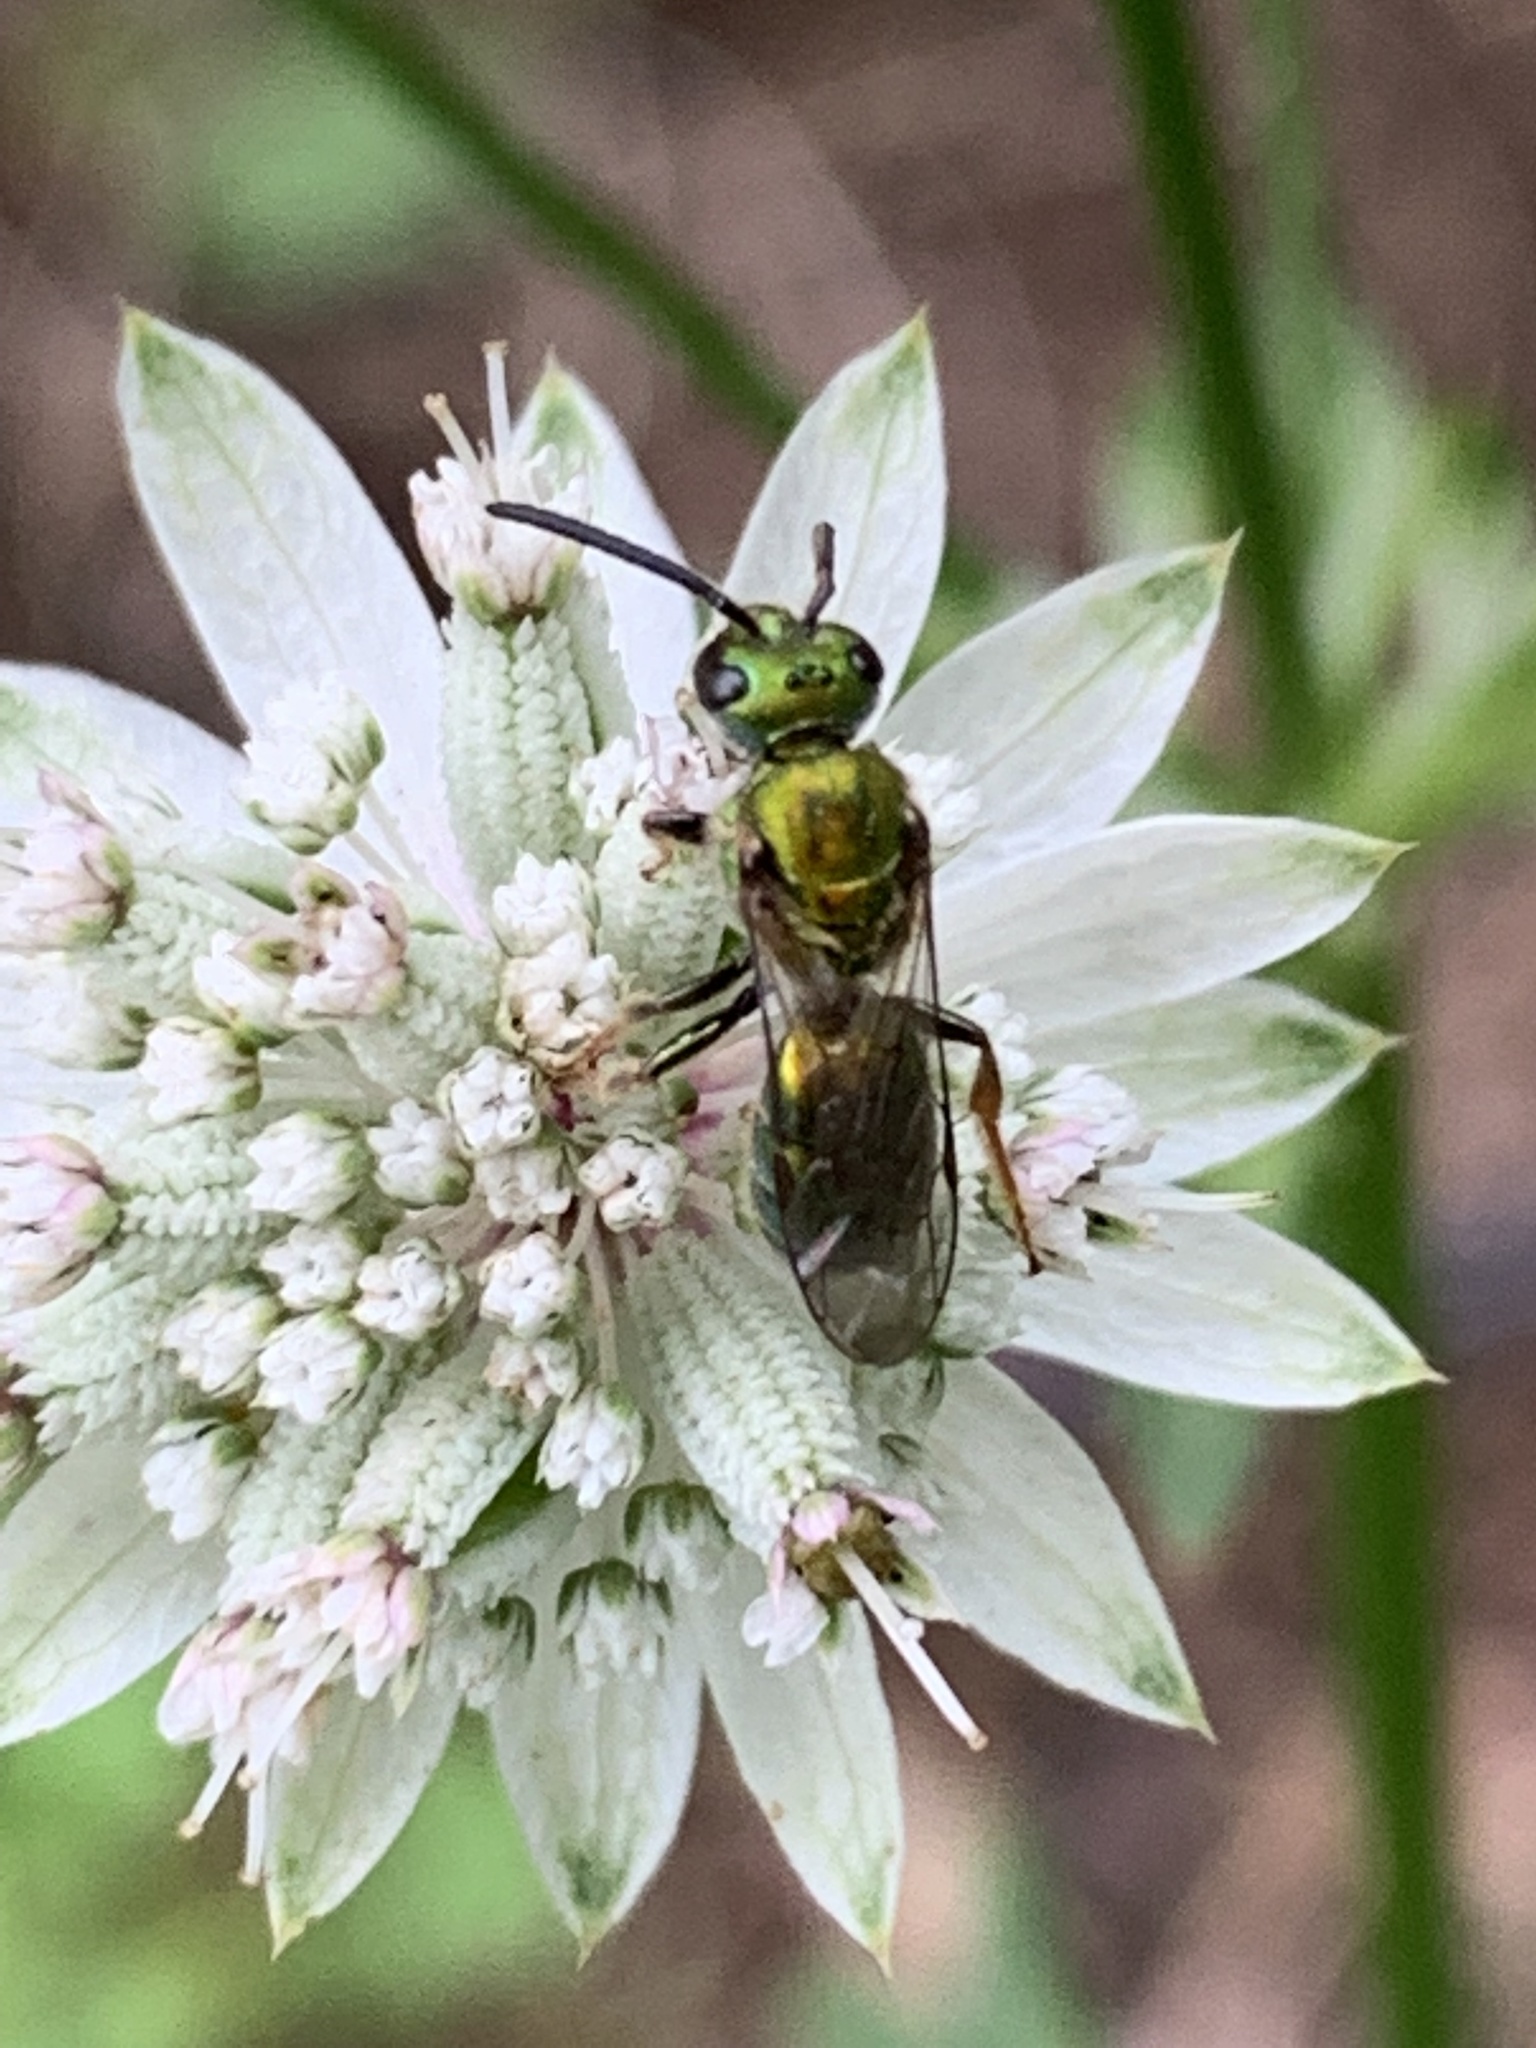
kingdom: Animalia
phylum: Arthropoda
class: Insecta
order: Hymenoptera
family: Halictidae
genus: Augochlora
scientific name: Augochlora pura
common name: Pure green sweat bee
